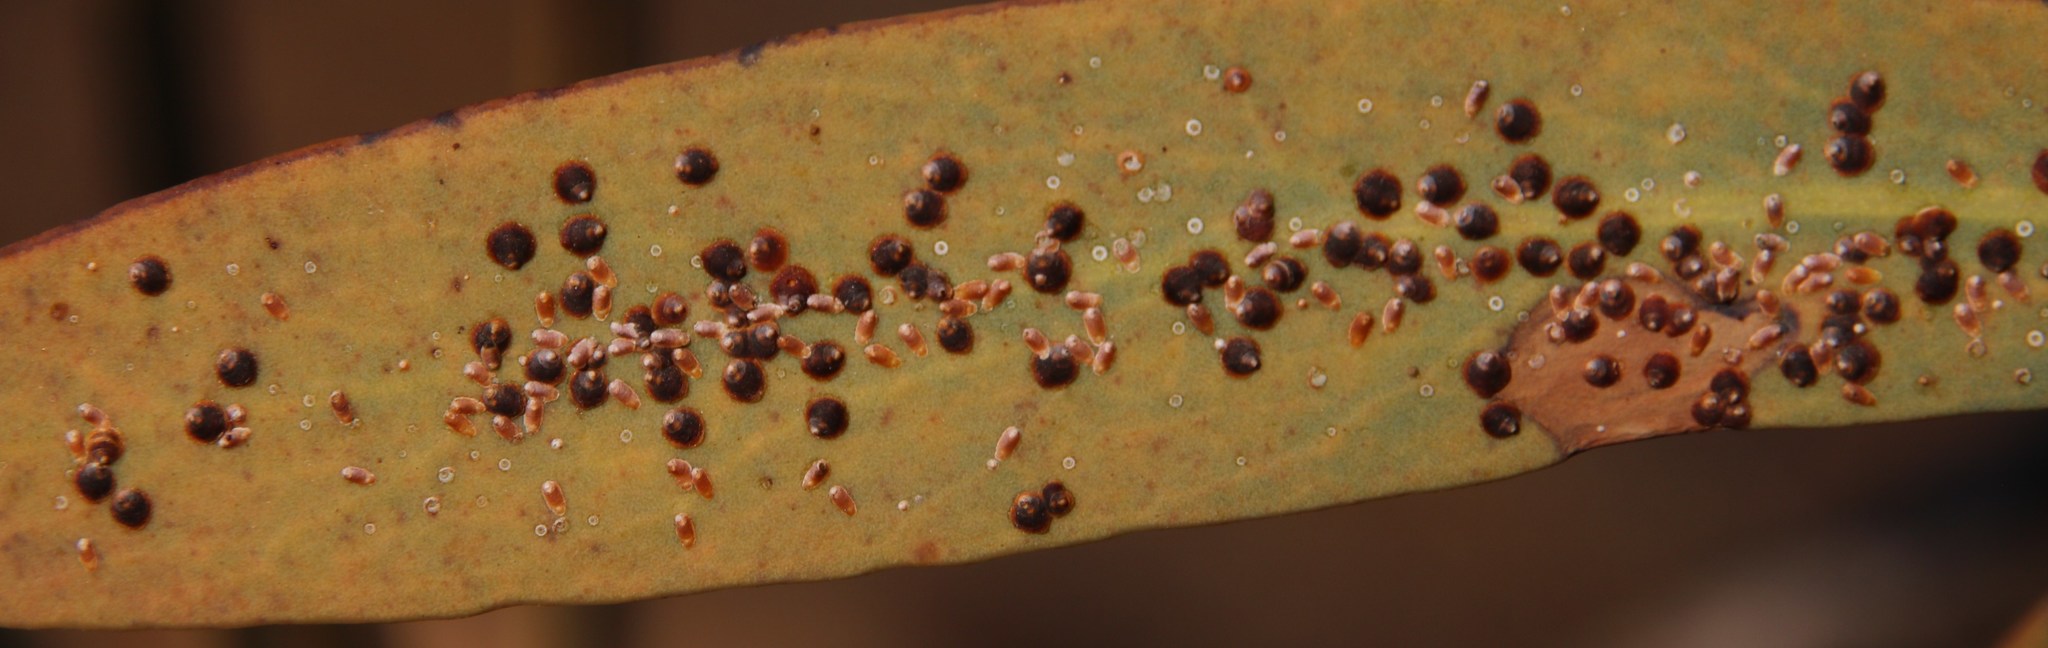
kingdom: Plantae
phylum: Tracheophyta
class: Magnoliopsida
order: Proteales
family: Proteaceae
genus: Protea
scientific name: Protea caffra
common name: Common sugarbush
